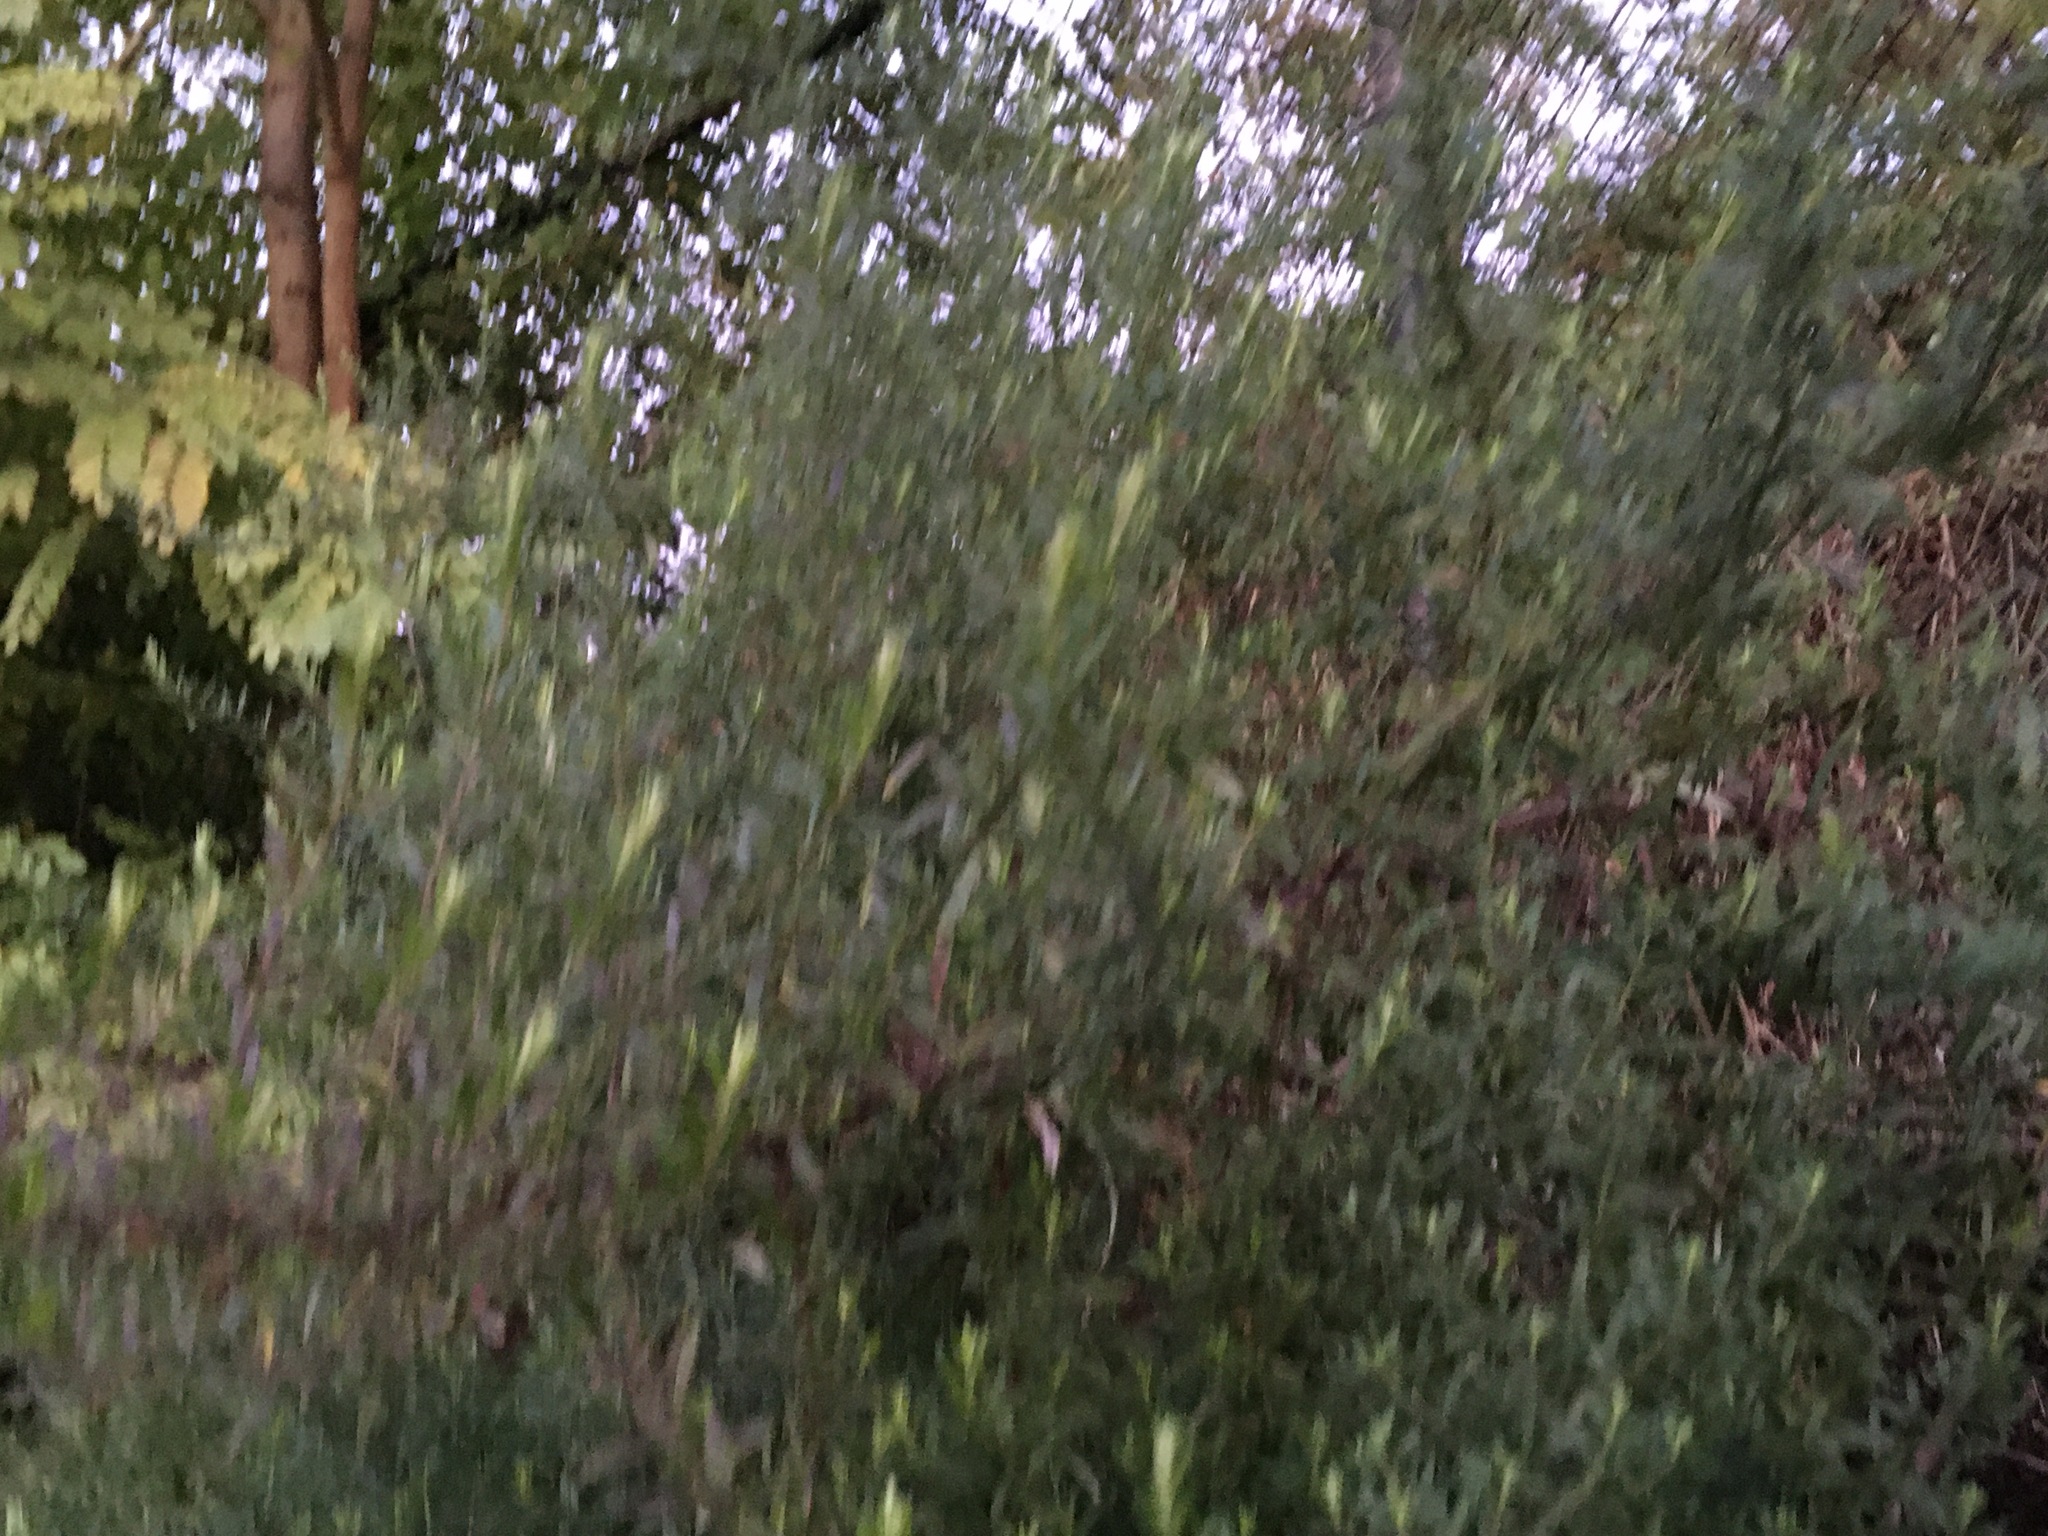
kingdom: Plantae
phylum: Tracheophyta
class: Magnoliopsida
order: Asterales
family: Asteraceae
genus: Artemisia
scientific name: Artemisia vulgaris
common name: Mugwort
